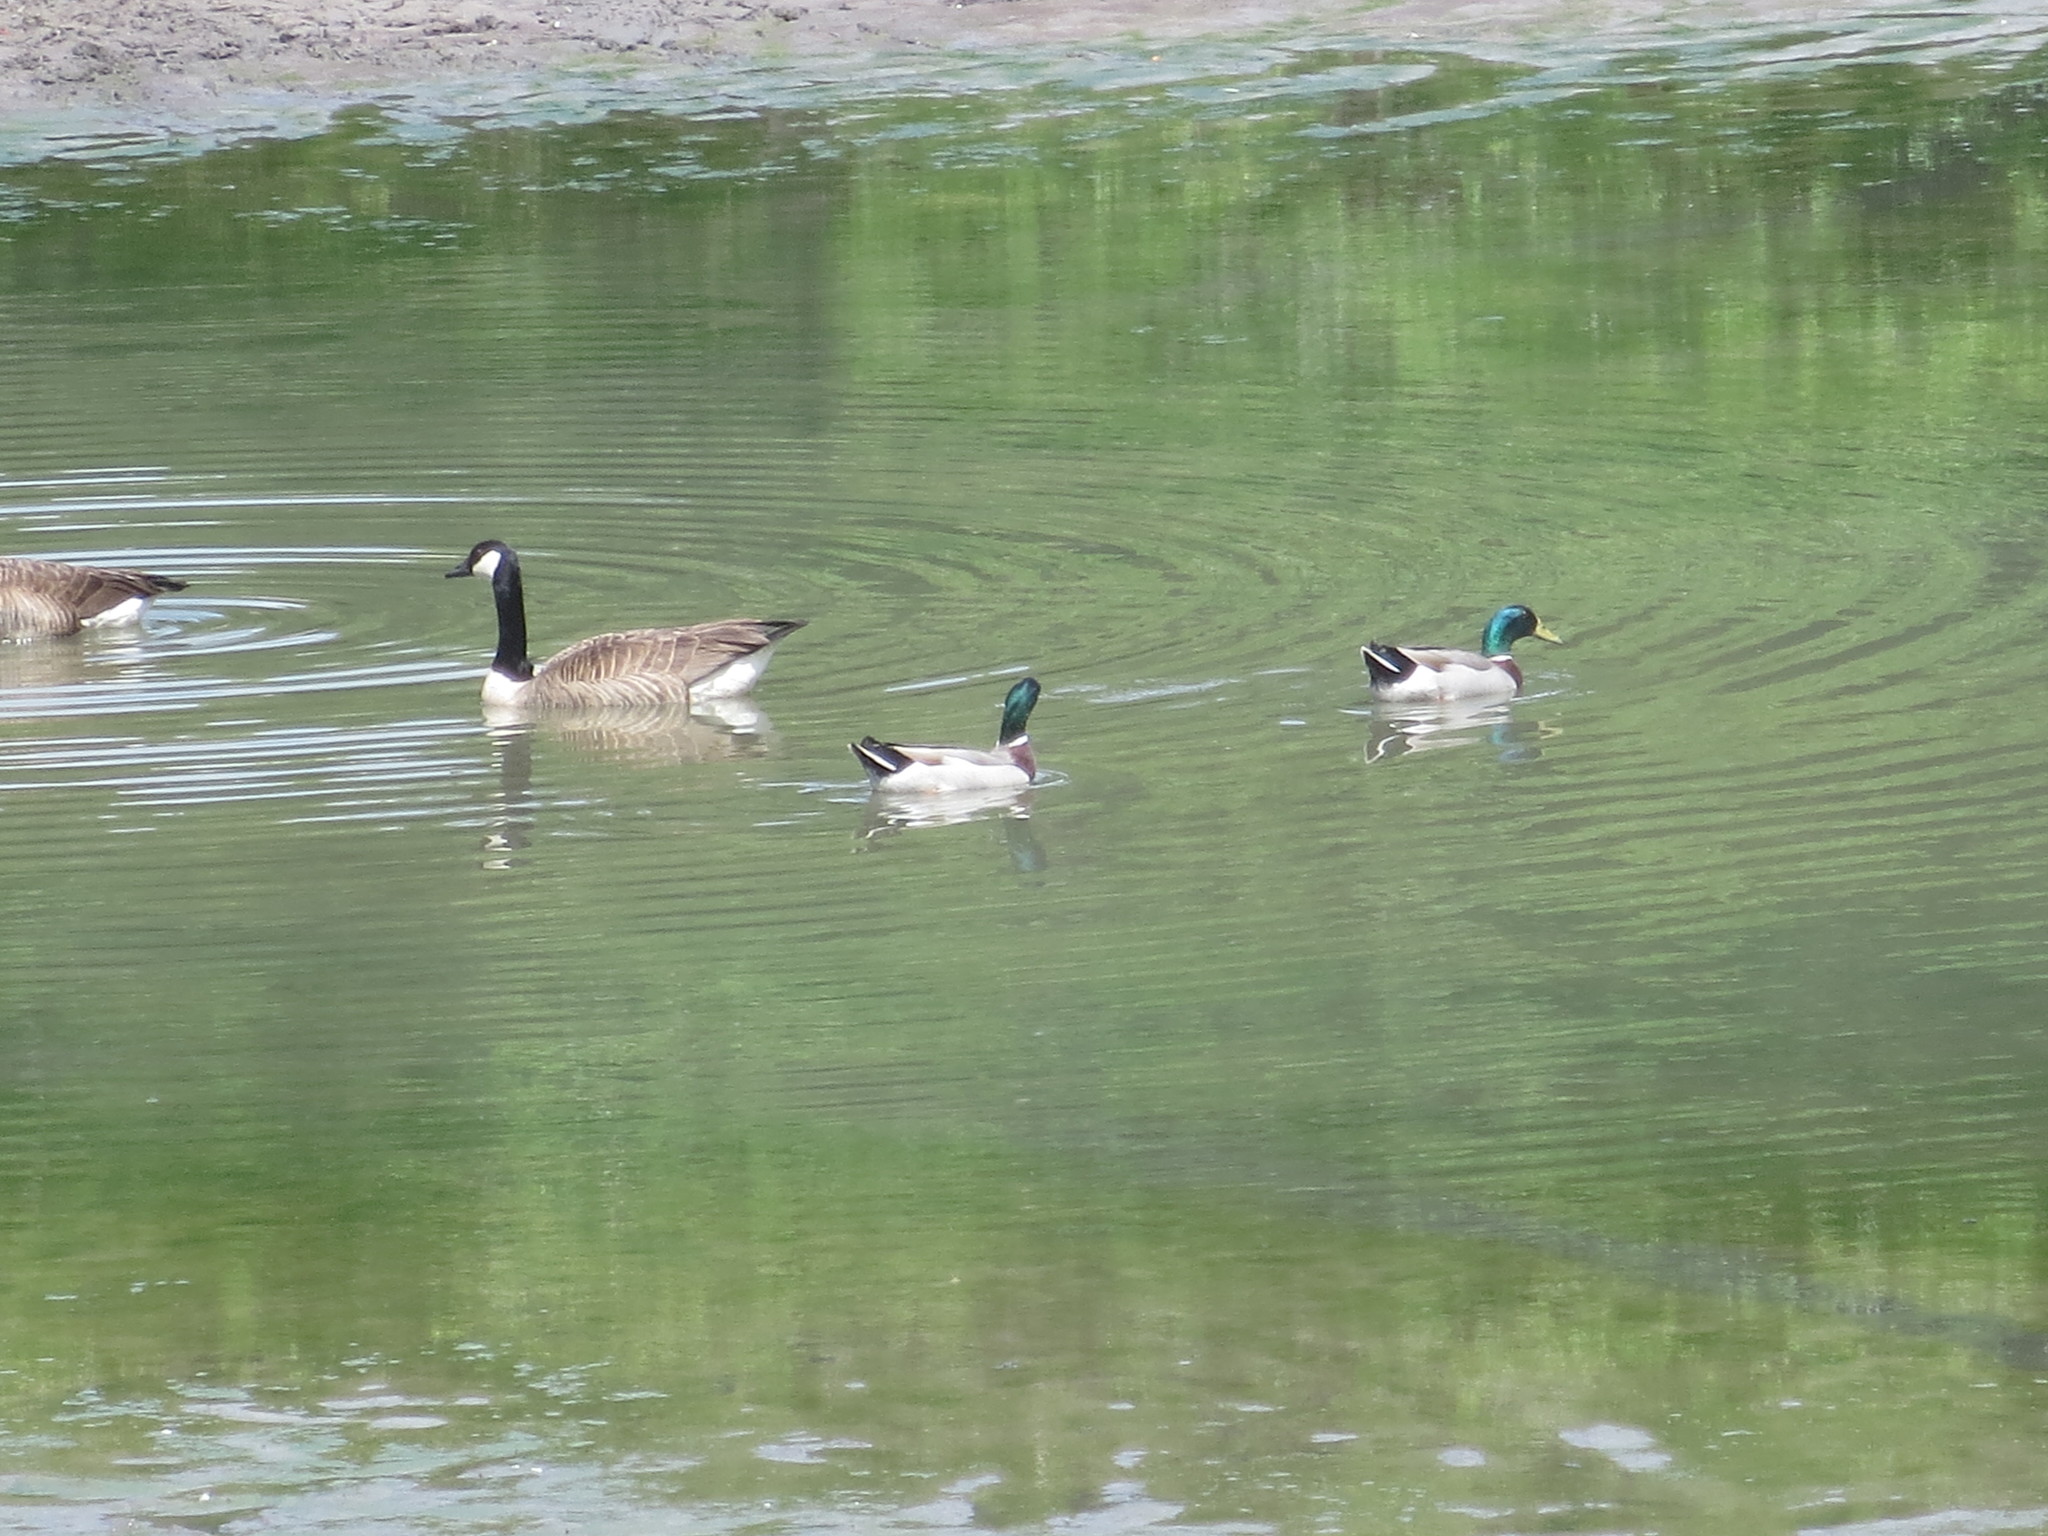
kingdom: Animalia
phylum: Chordata
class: Aves
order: Anseriformes
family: Anatidae
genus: Anas
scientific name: Anas platyrhynchos
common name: Mallard
